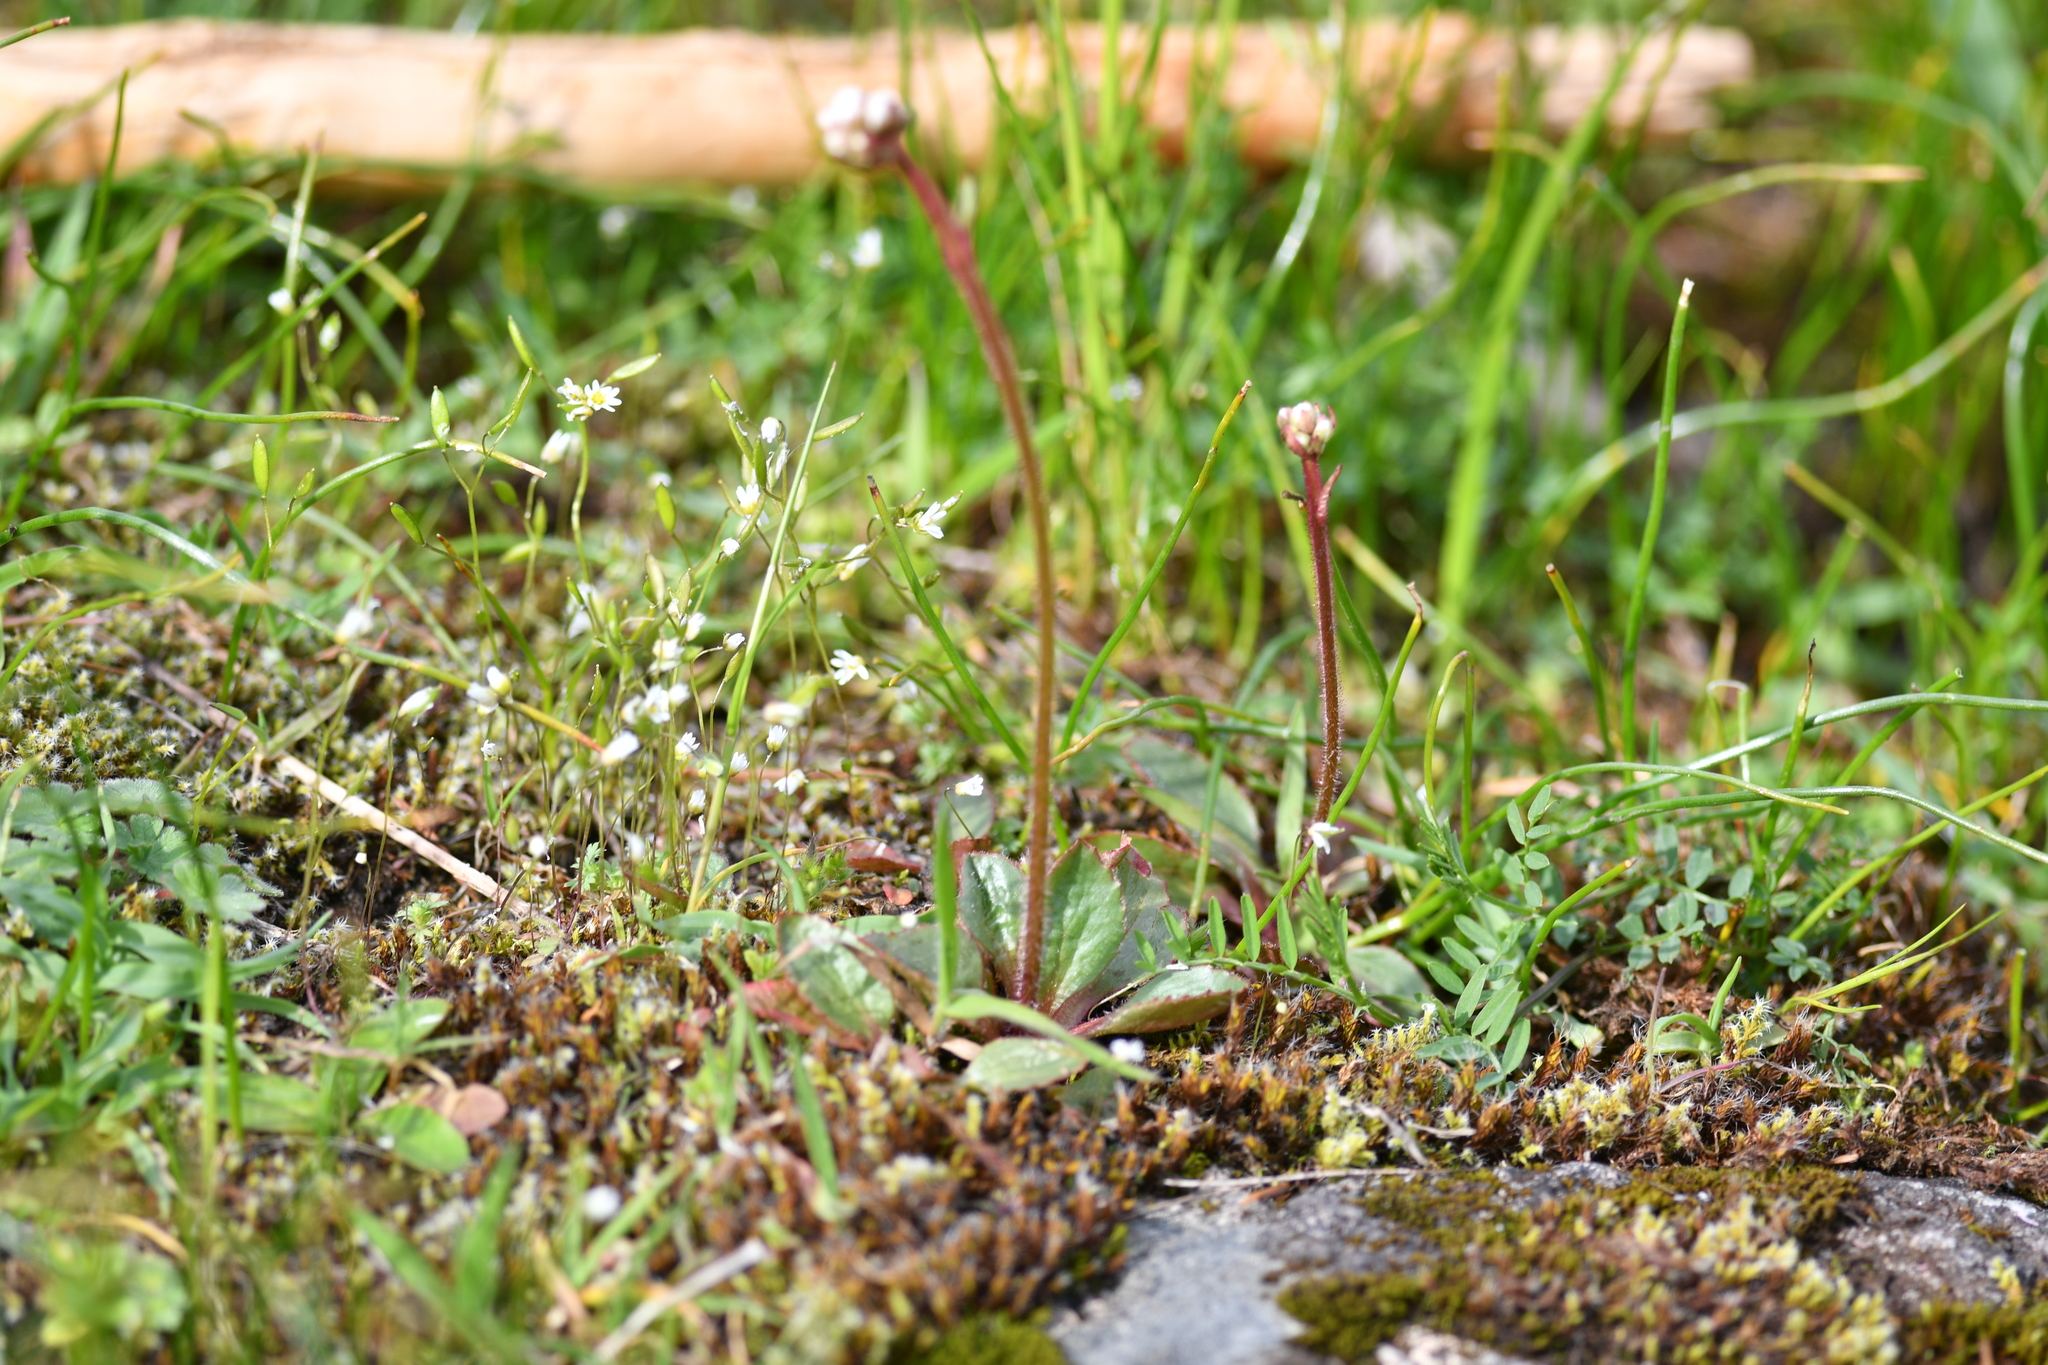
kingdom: Plantae
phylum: Tracheophyta
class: Magnoliopsida
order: Saxifragales
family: Saxifragaceae
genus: Micranthes
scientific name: Micranthes integrifolia
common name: Wholeleaf saxifrage
